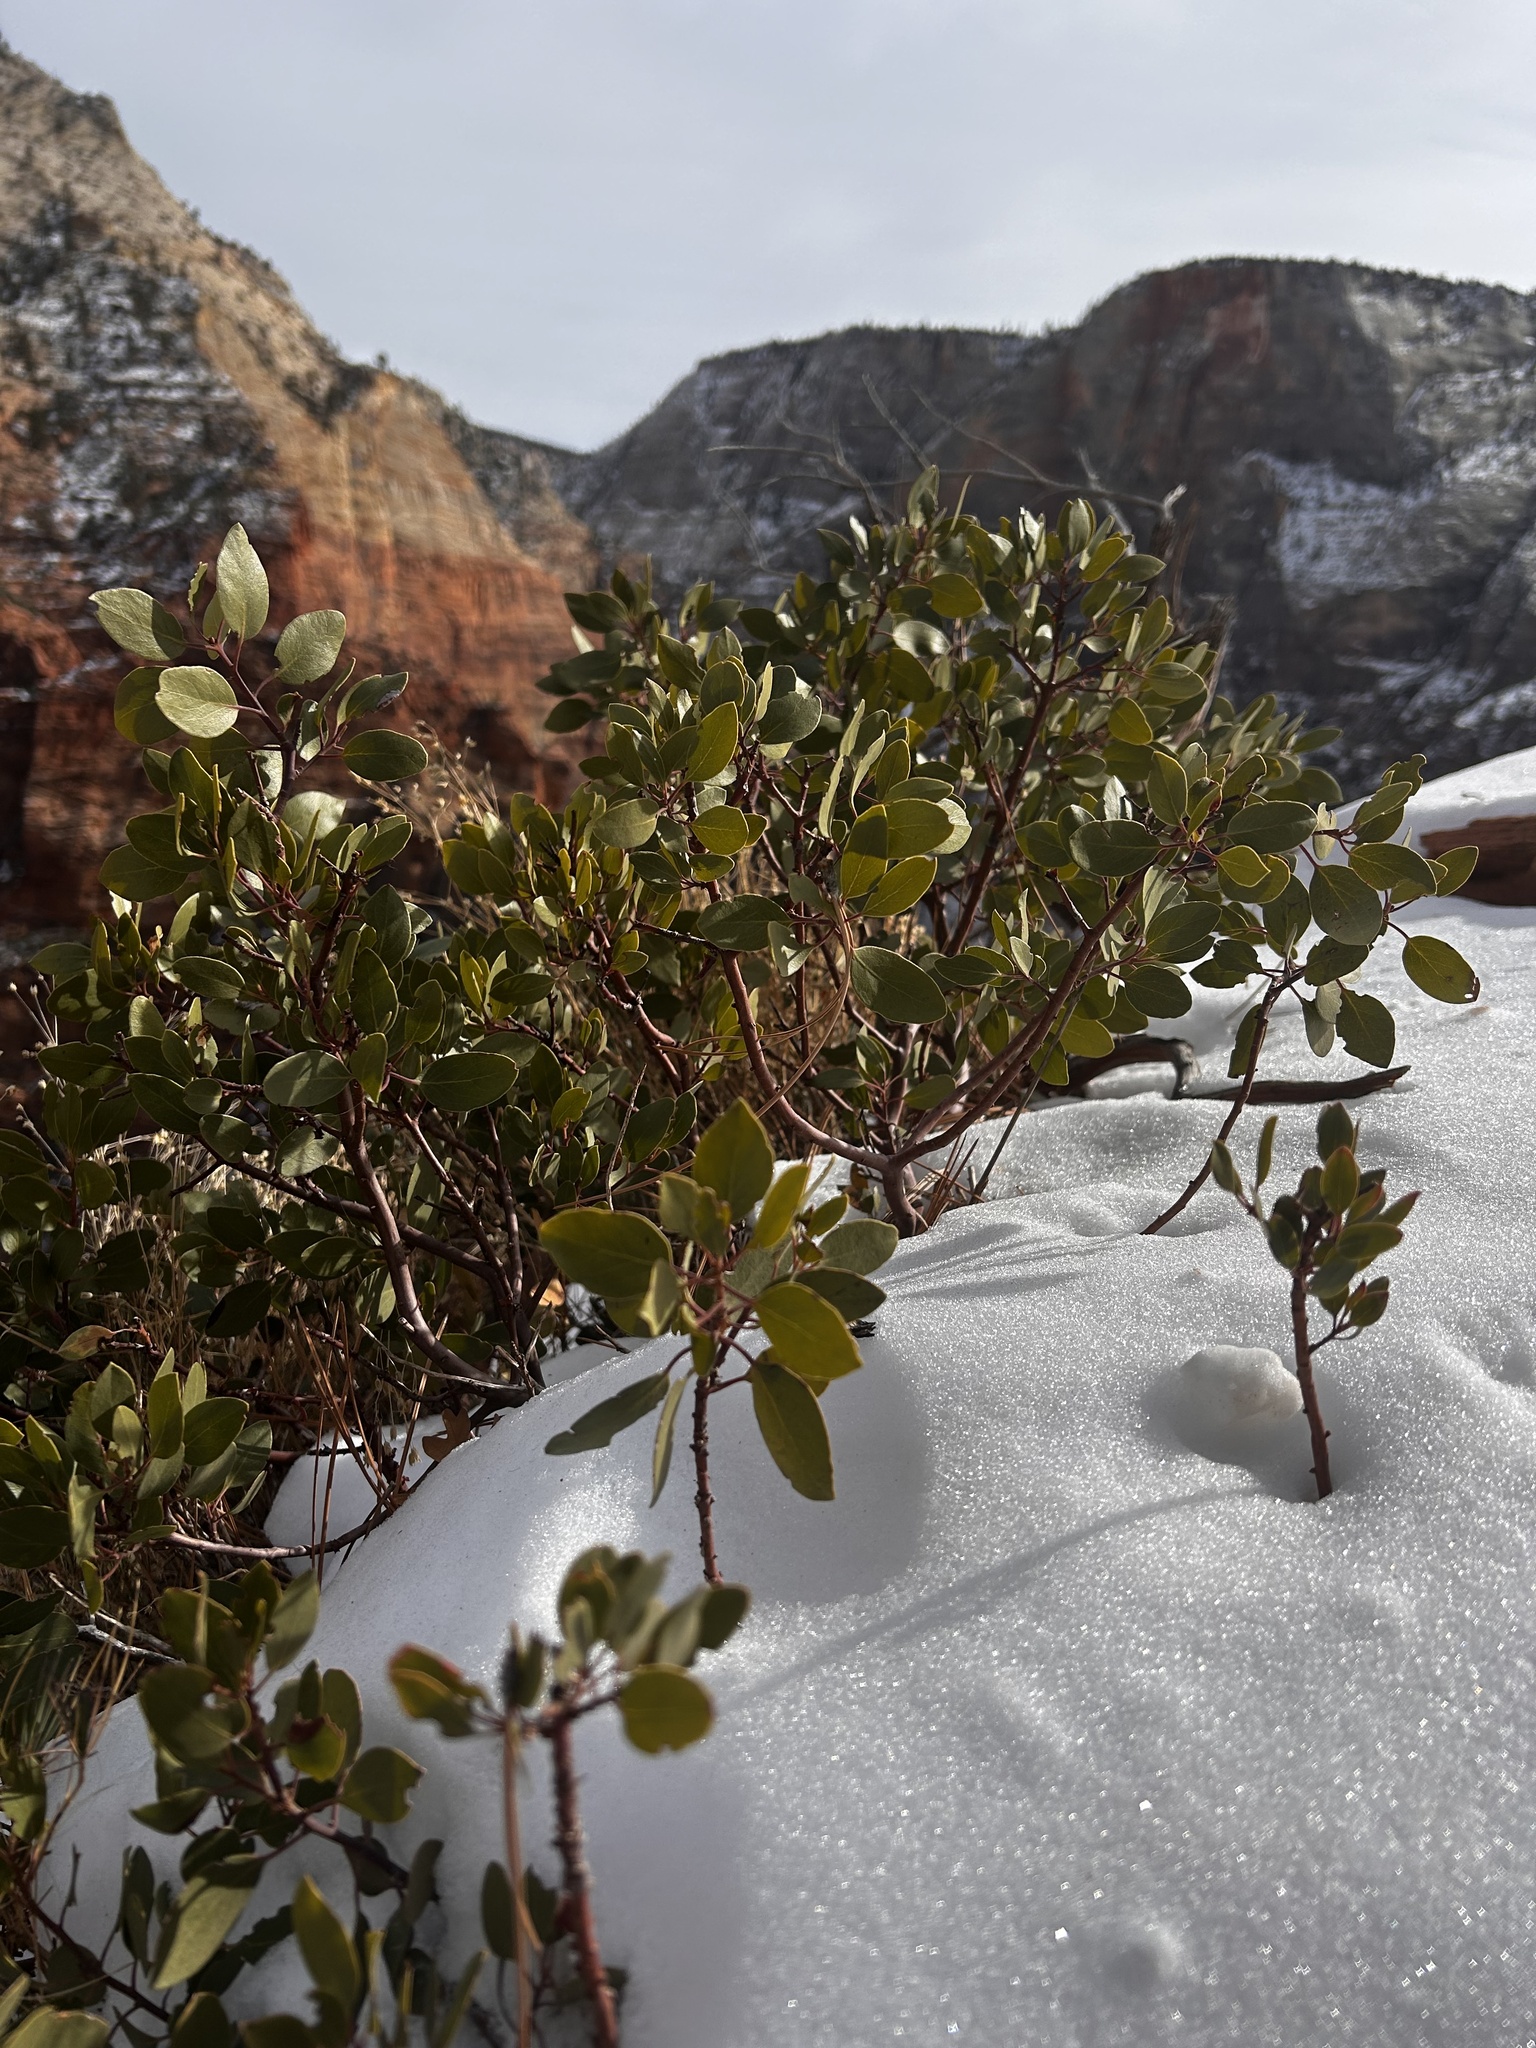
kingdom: Plantae
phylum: Tracheophyta
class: Magnoliopsida
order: Ericales
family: Ericaceae
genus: Arctostaphylos
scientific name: Arctostaphylos patula
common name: Green-leaf manzanita
